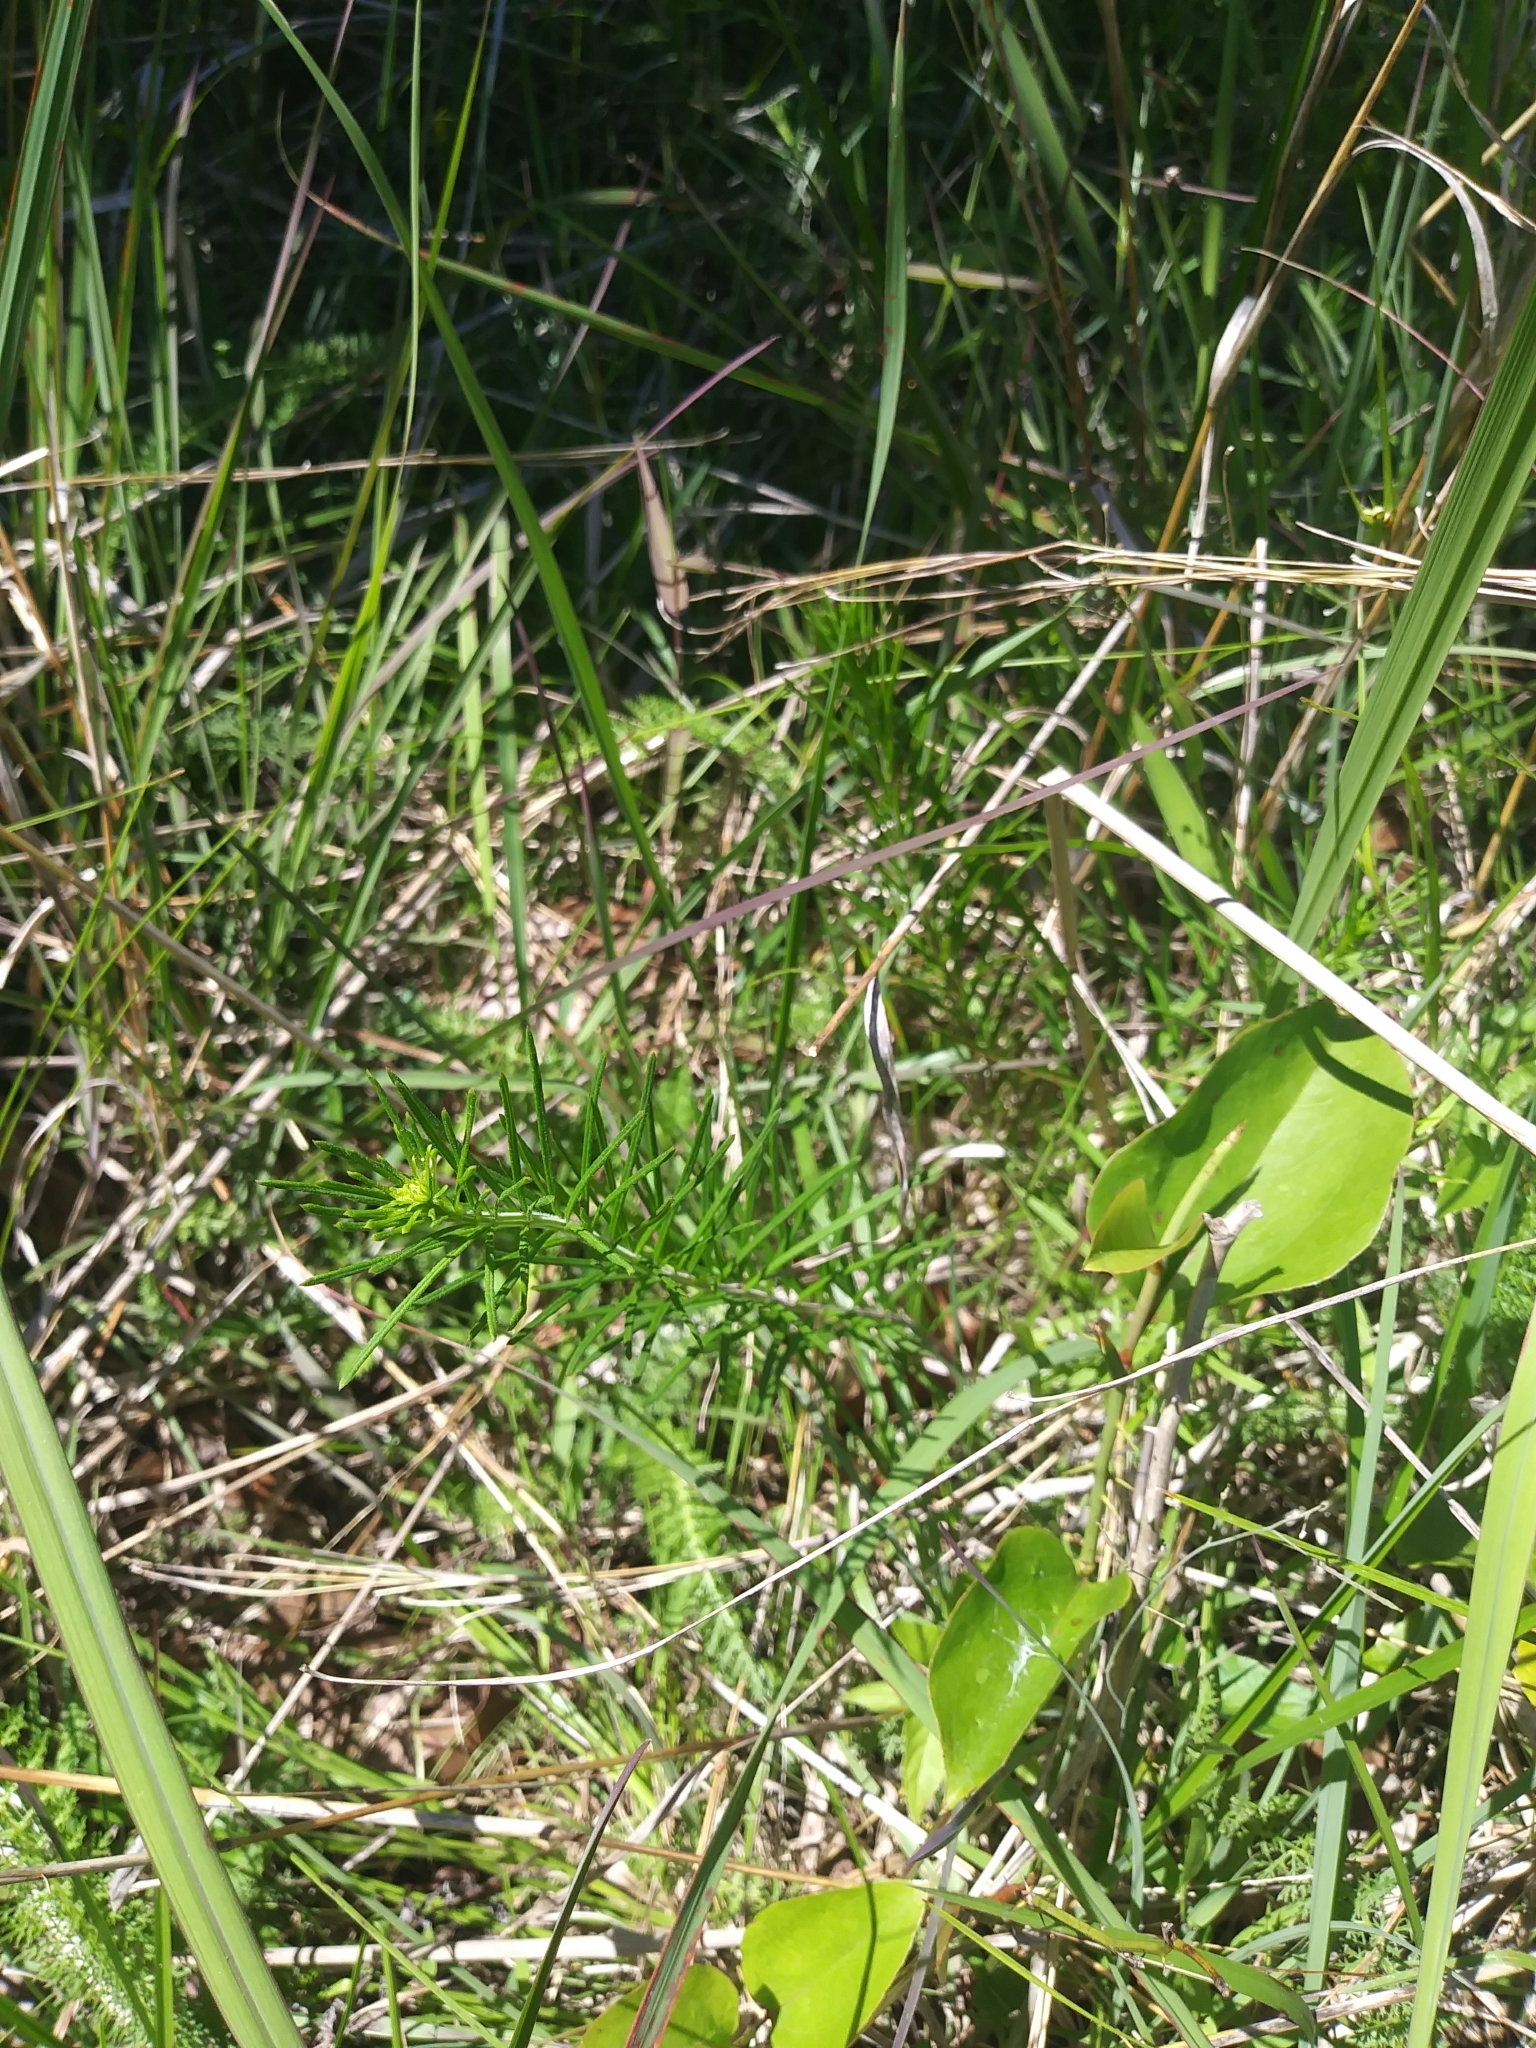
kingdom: Plantae
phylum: Tracheophyta
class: Magnoliopsida
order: Gentianales
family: Apocynaceae
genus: Asclepias
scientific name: Asclepias verticillata
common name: Eastern whorled milkweed
